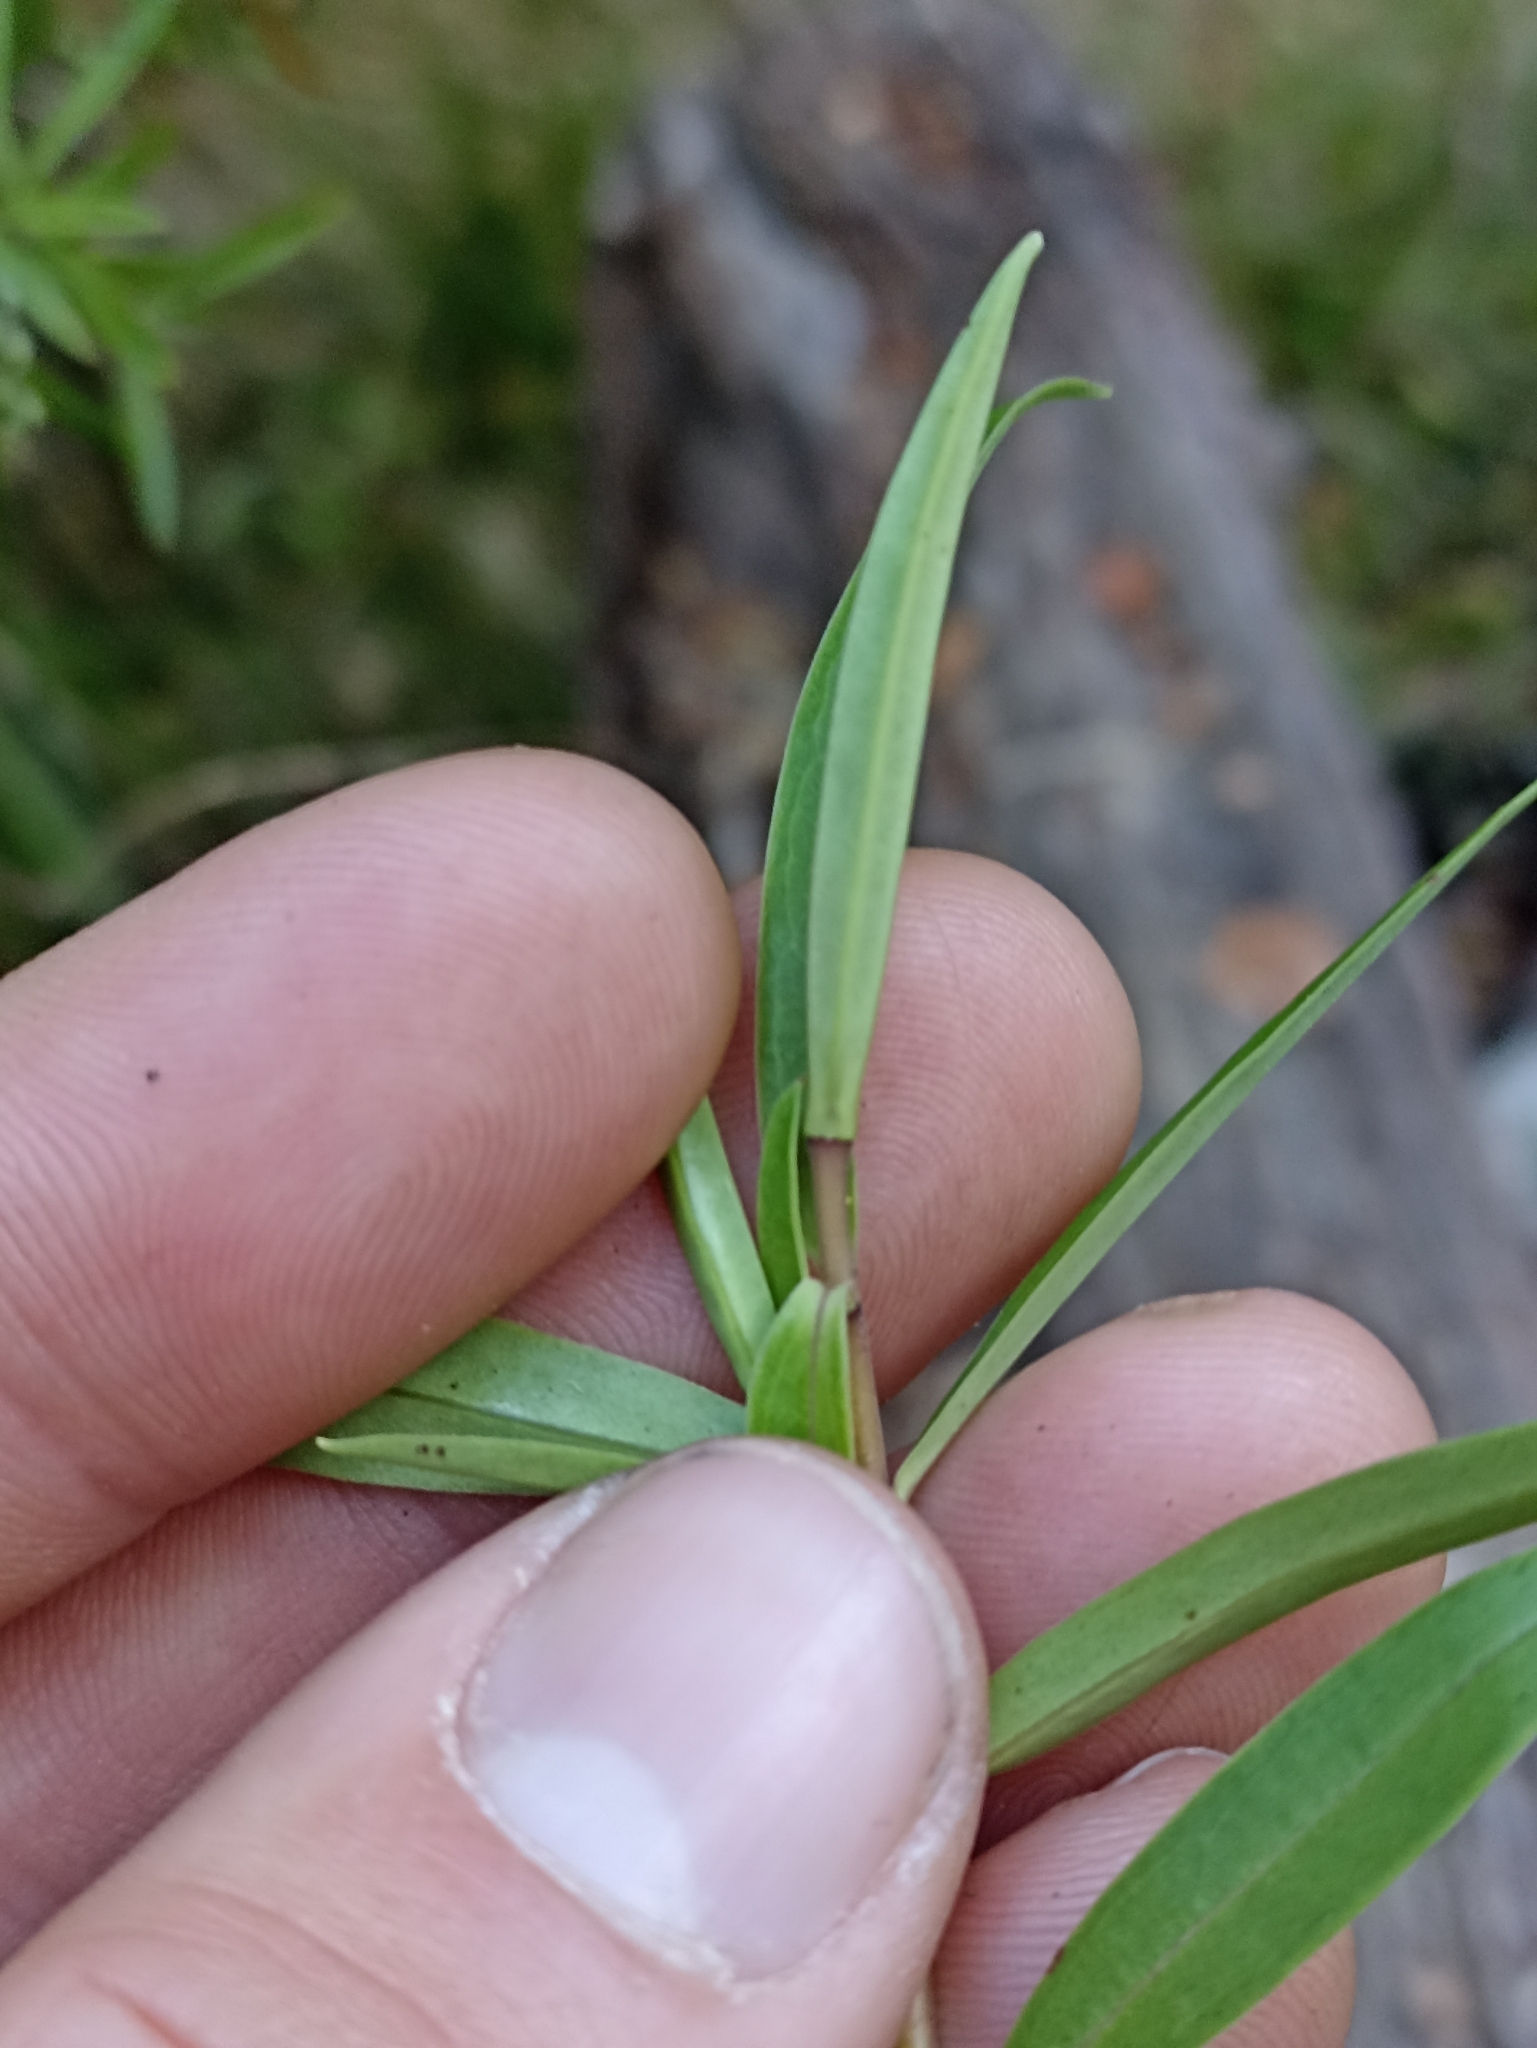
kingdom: Plantae
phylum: Tracheophyta
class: Magnoliopsida
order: Lamiales
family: Plantaginaceae
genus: Veronica
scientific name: Veronica leiophylla
